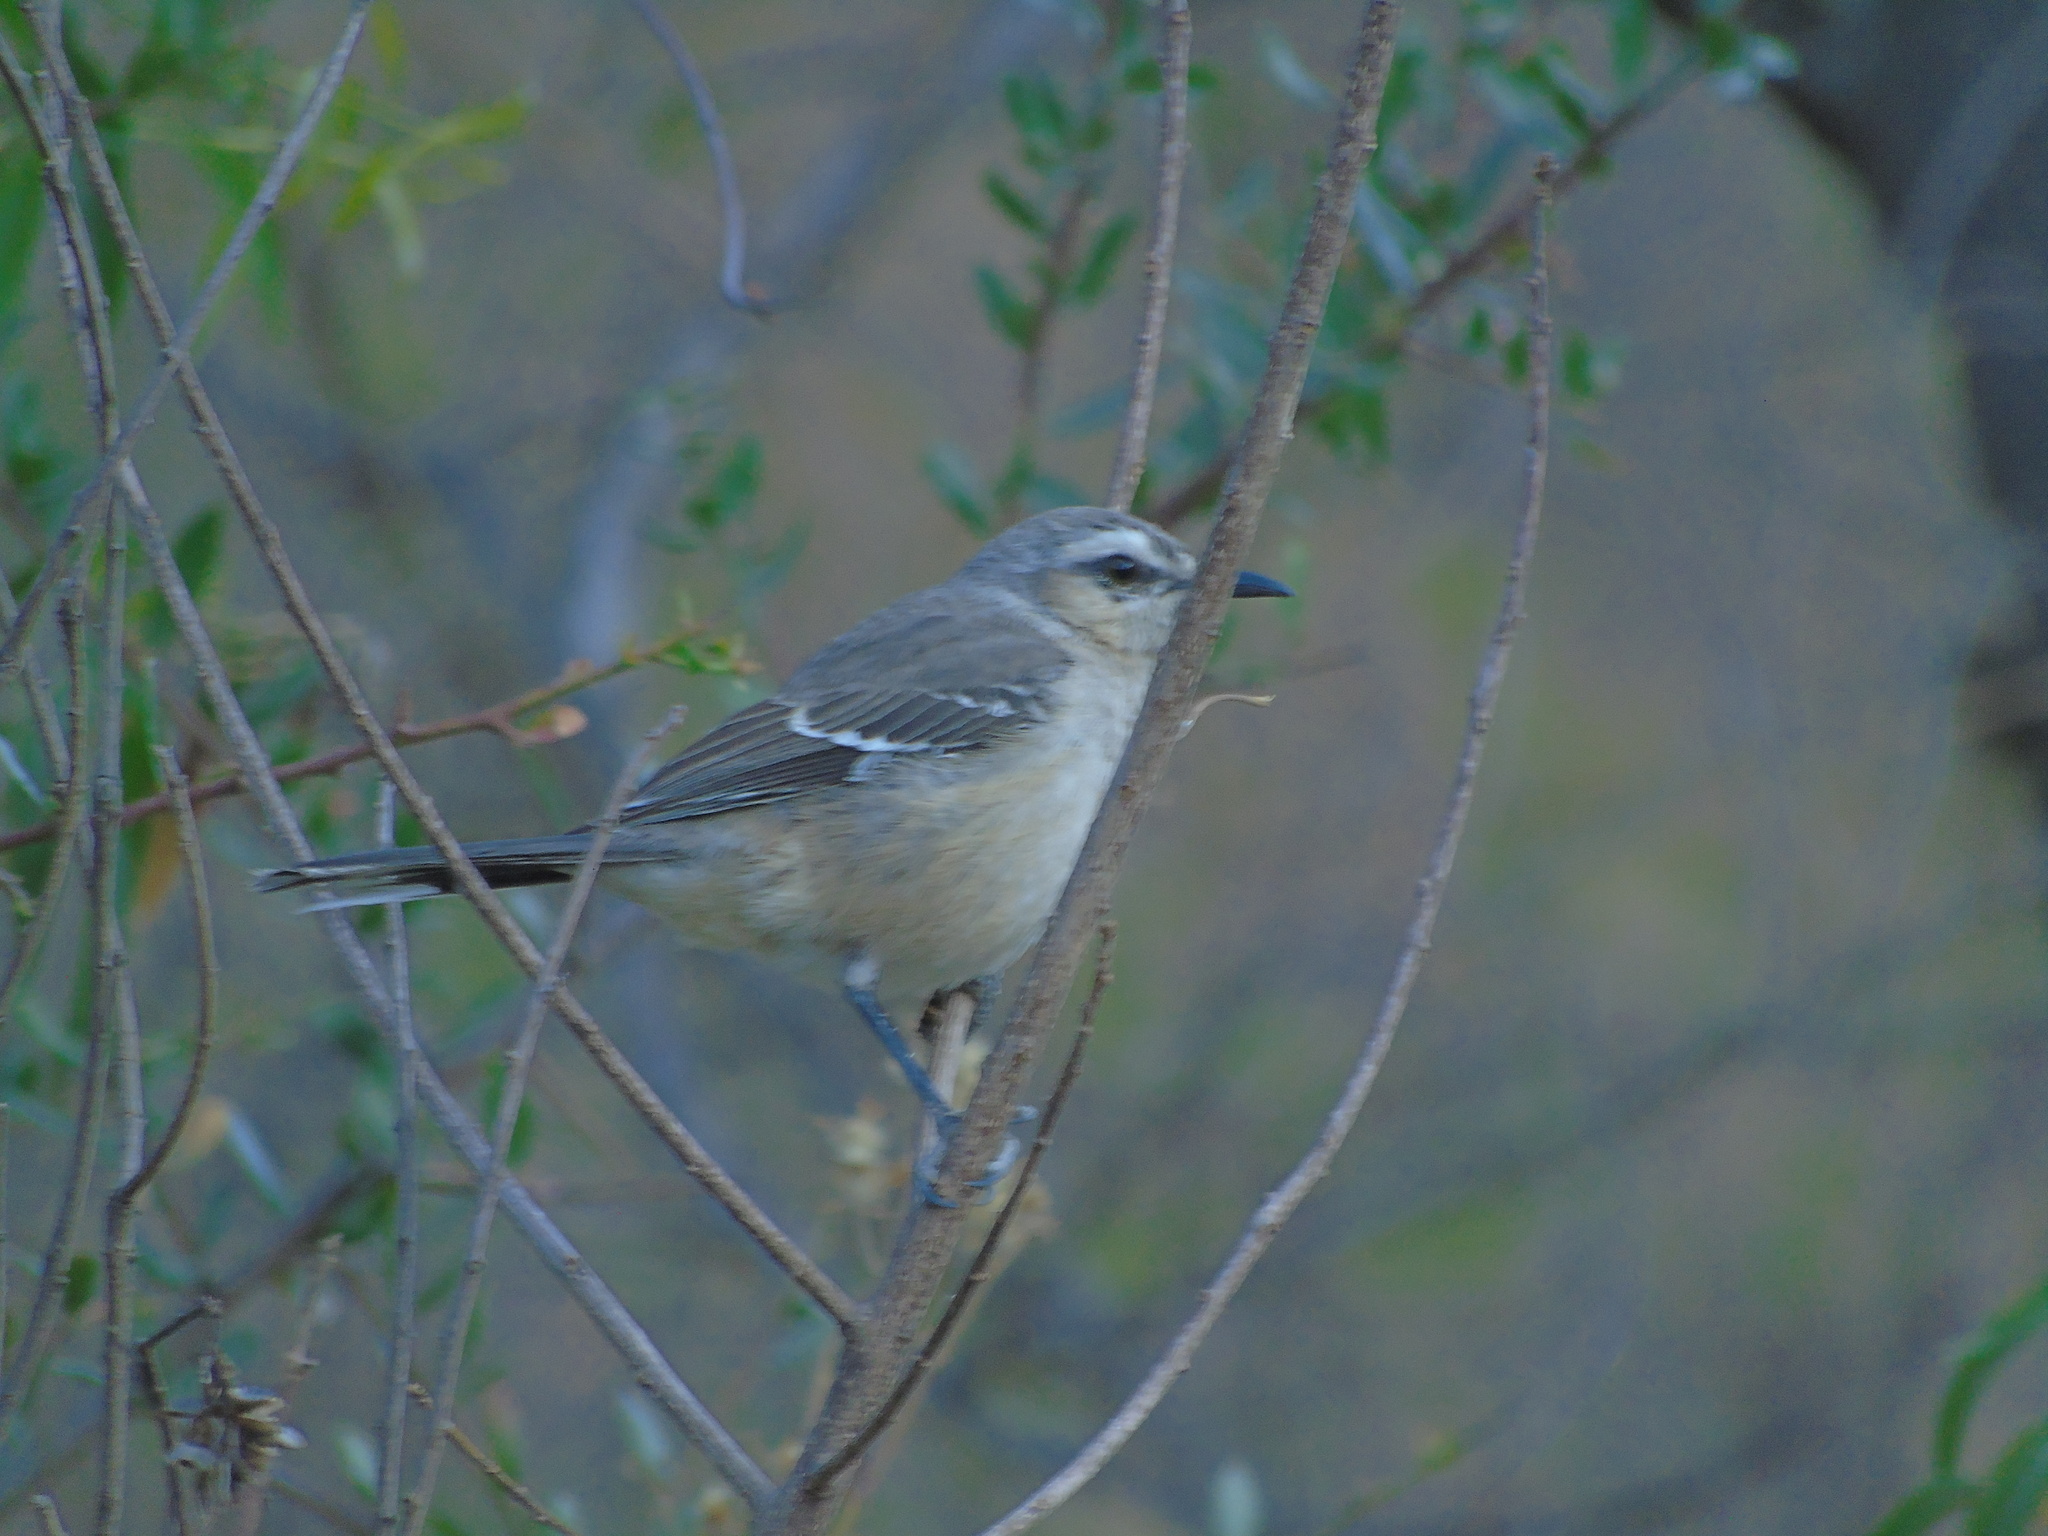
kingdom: Animalia
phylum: Chordata
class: Aves
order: Passeriformes
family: Mimidae
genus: Mimus
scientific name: Mimus patagonicus
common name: Patagonian mockingbird
